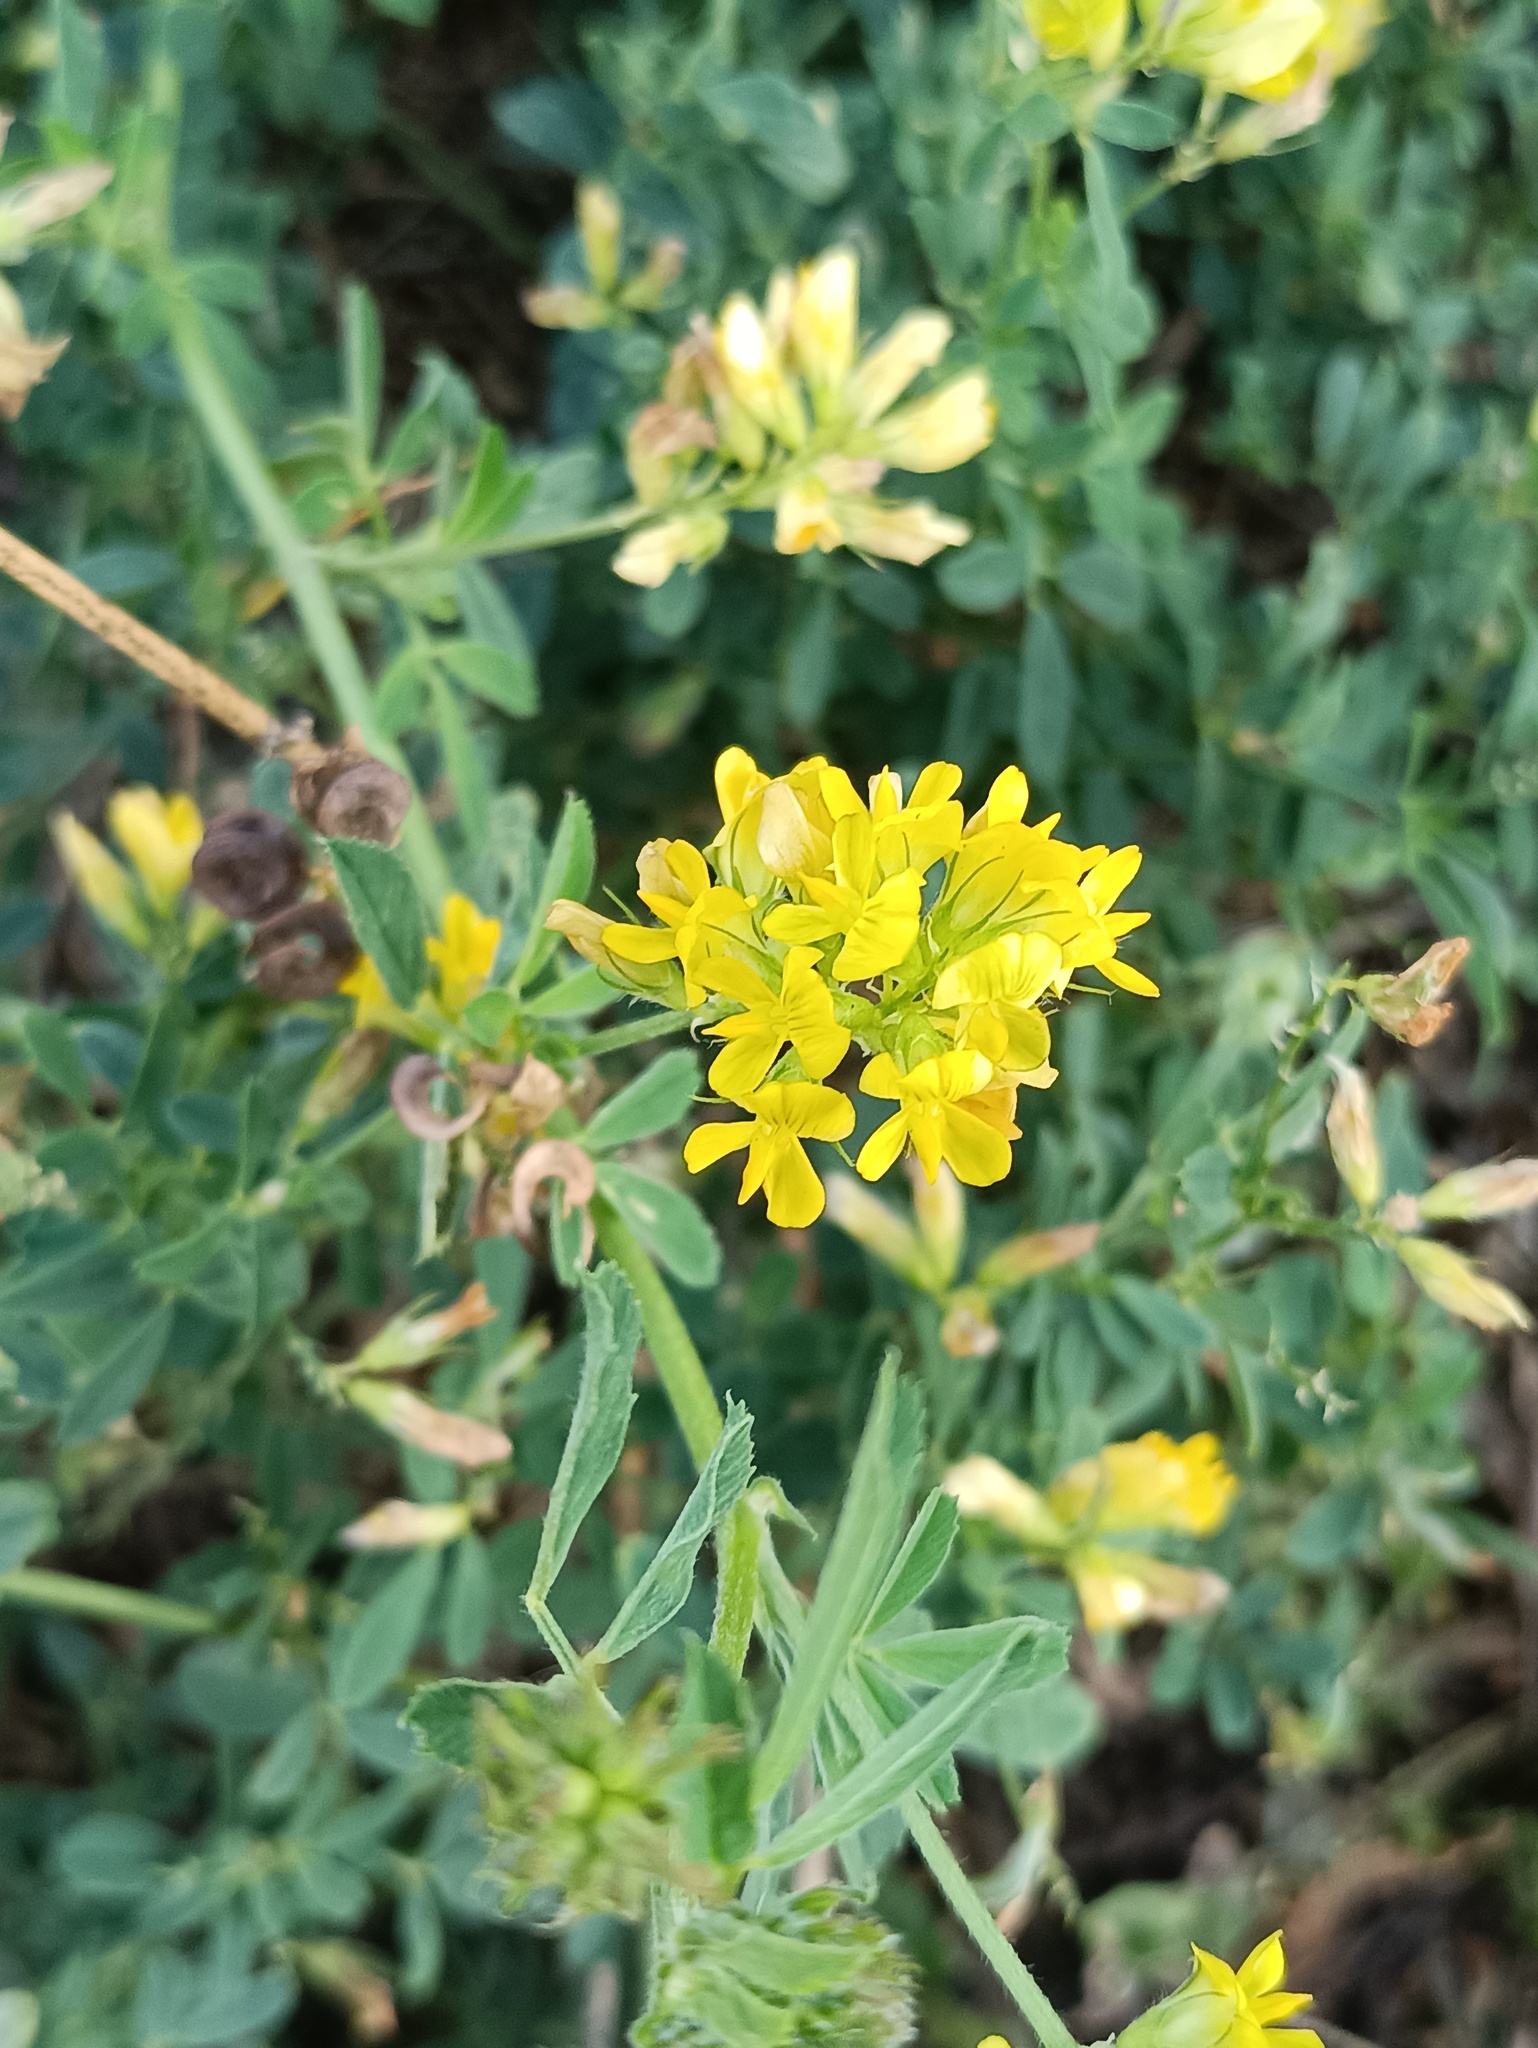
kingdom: Plantae
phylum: Tracheophyta
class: Magnoliopsida
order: Fabales
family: Fabaceae
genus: Medicago
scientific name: Medicago falcata
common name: Sickle medick
